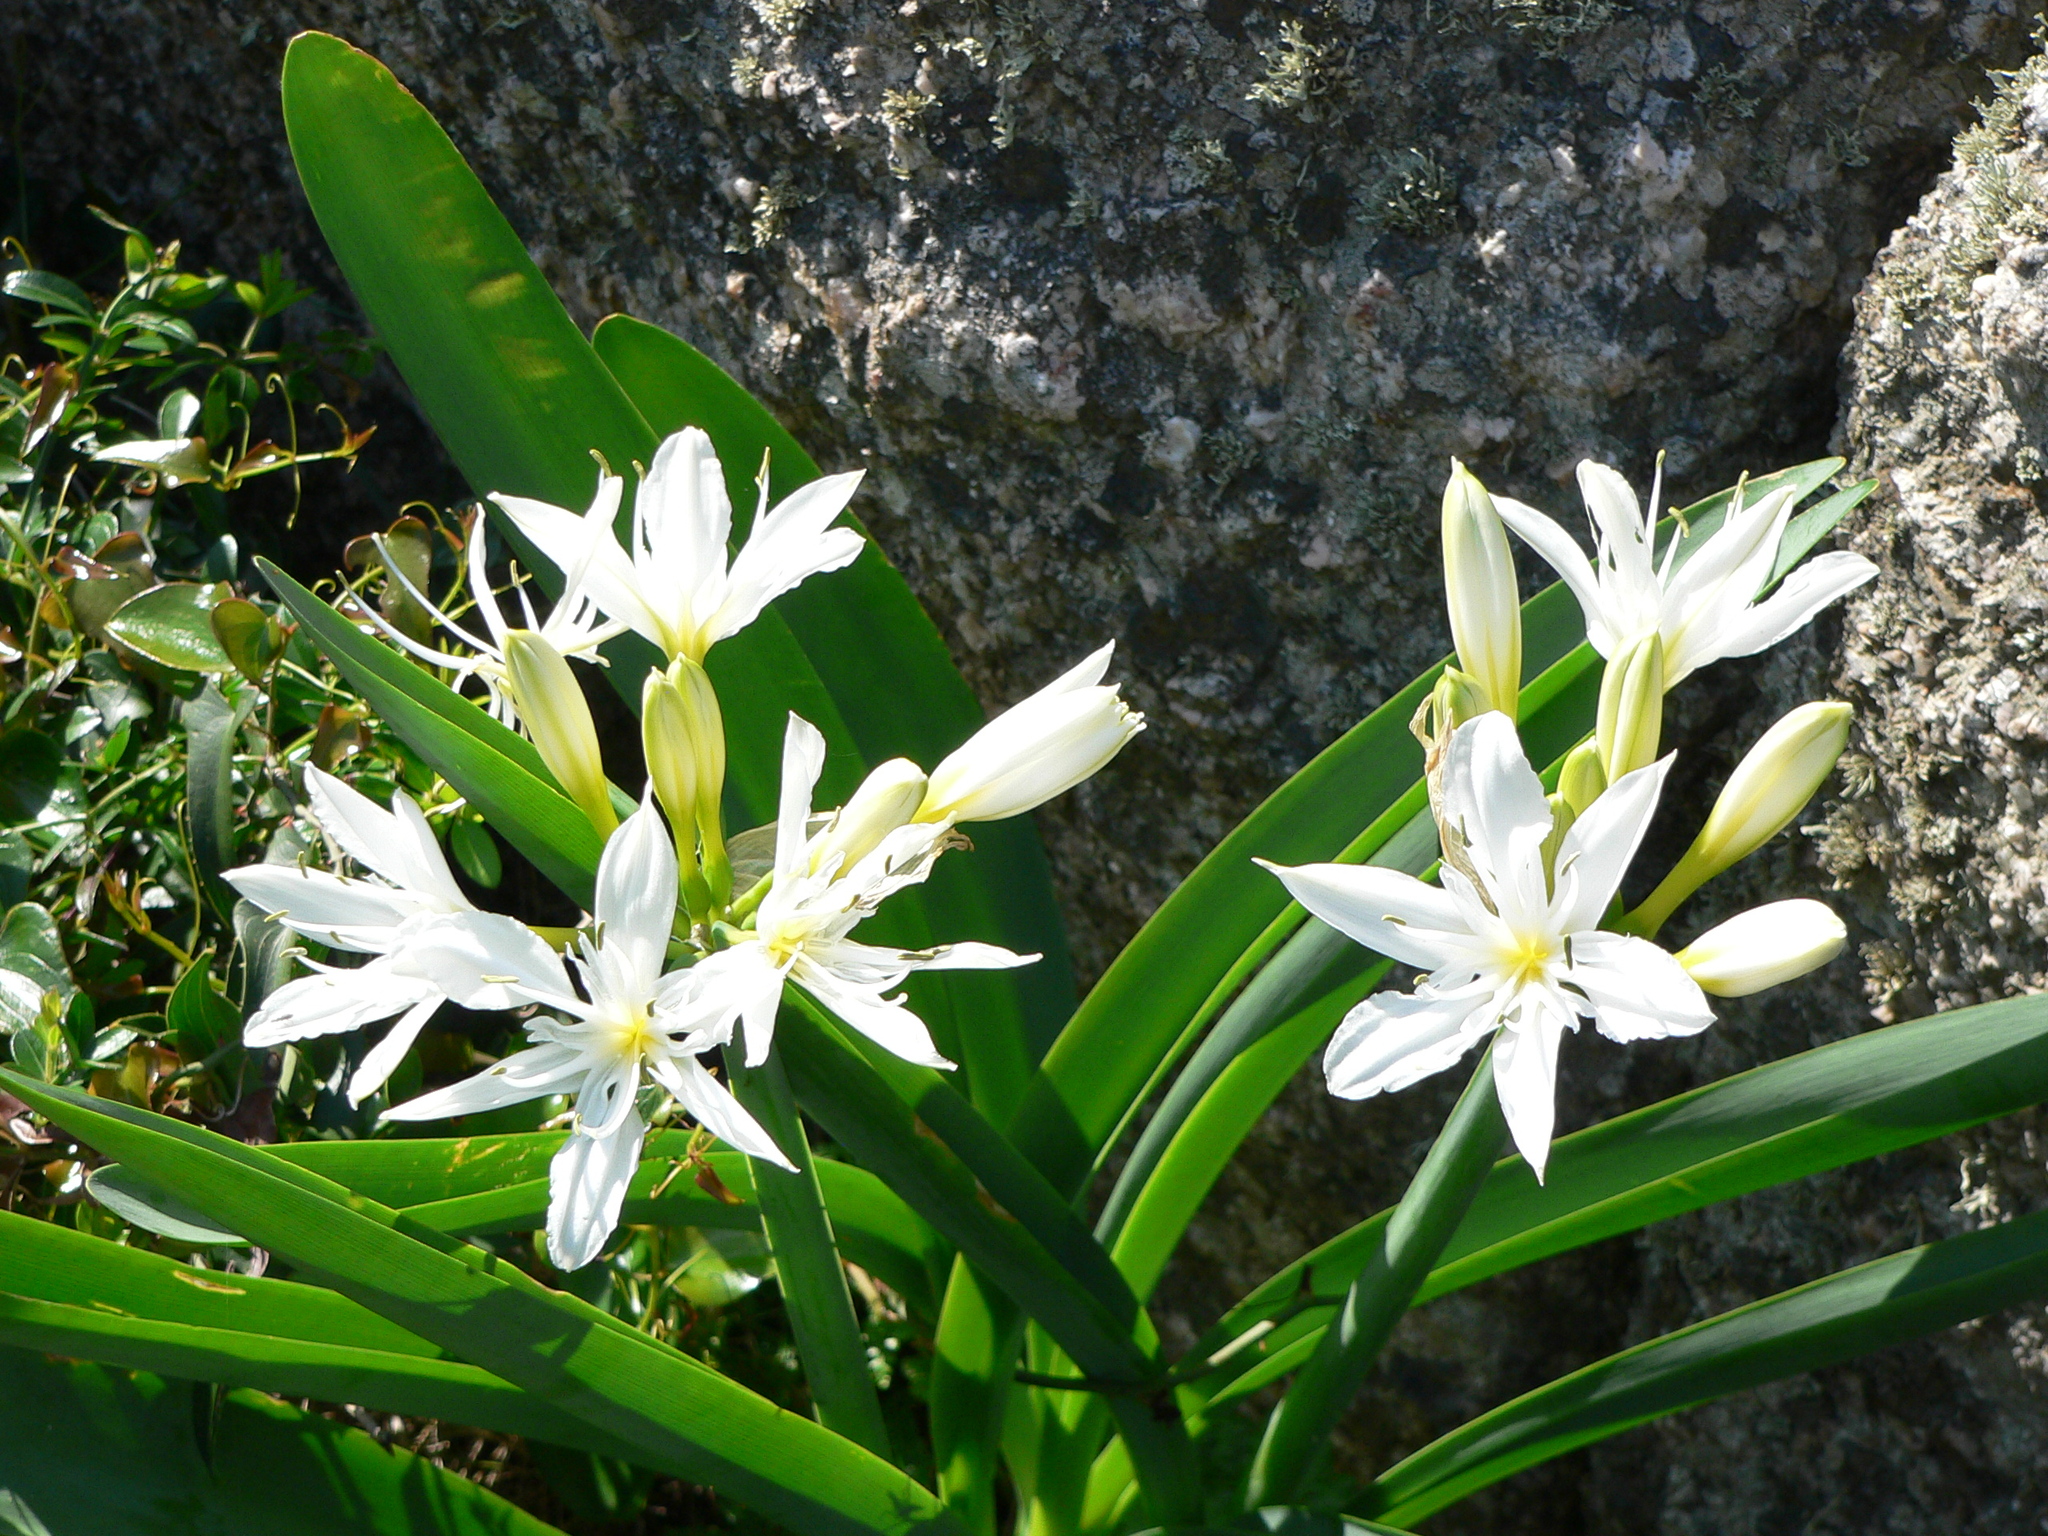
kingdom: Plantae
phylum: Tracheophyta
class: Liliopsida
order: Asparagales
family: Amaryllidaceae
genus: Pancratium
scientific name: Pancratium illyricum
